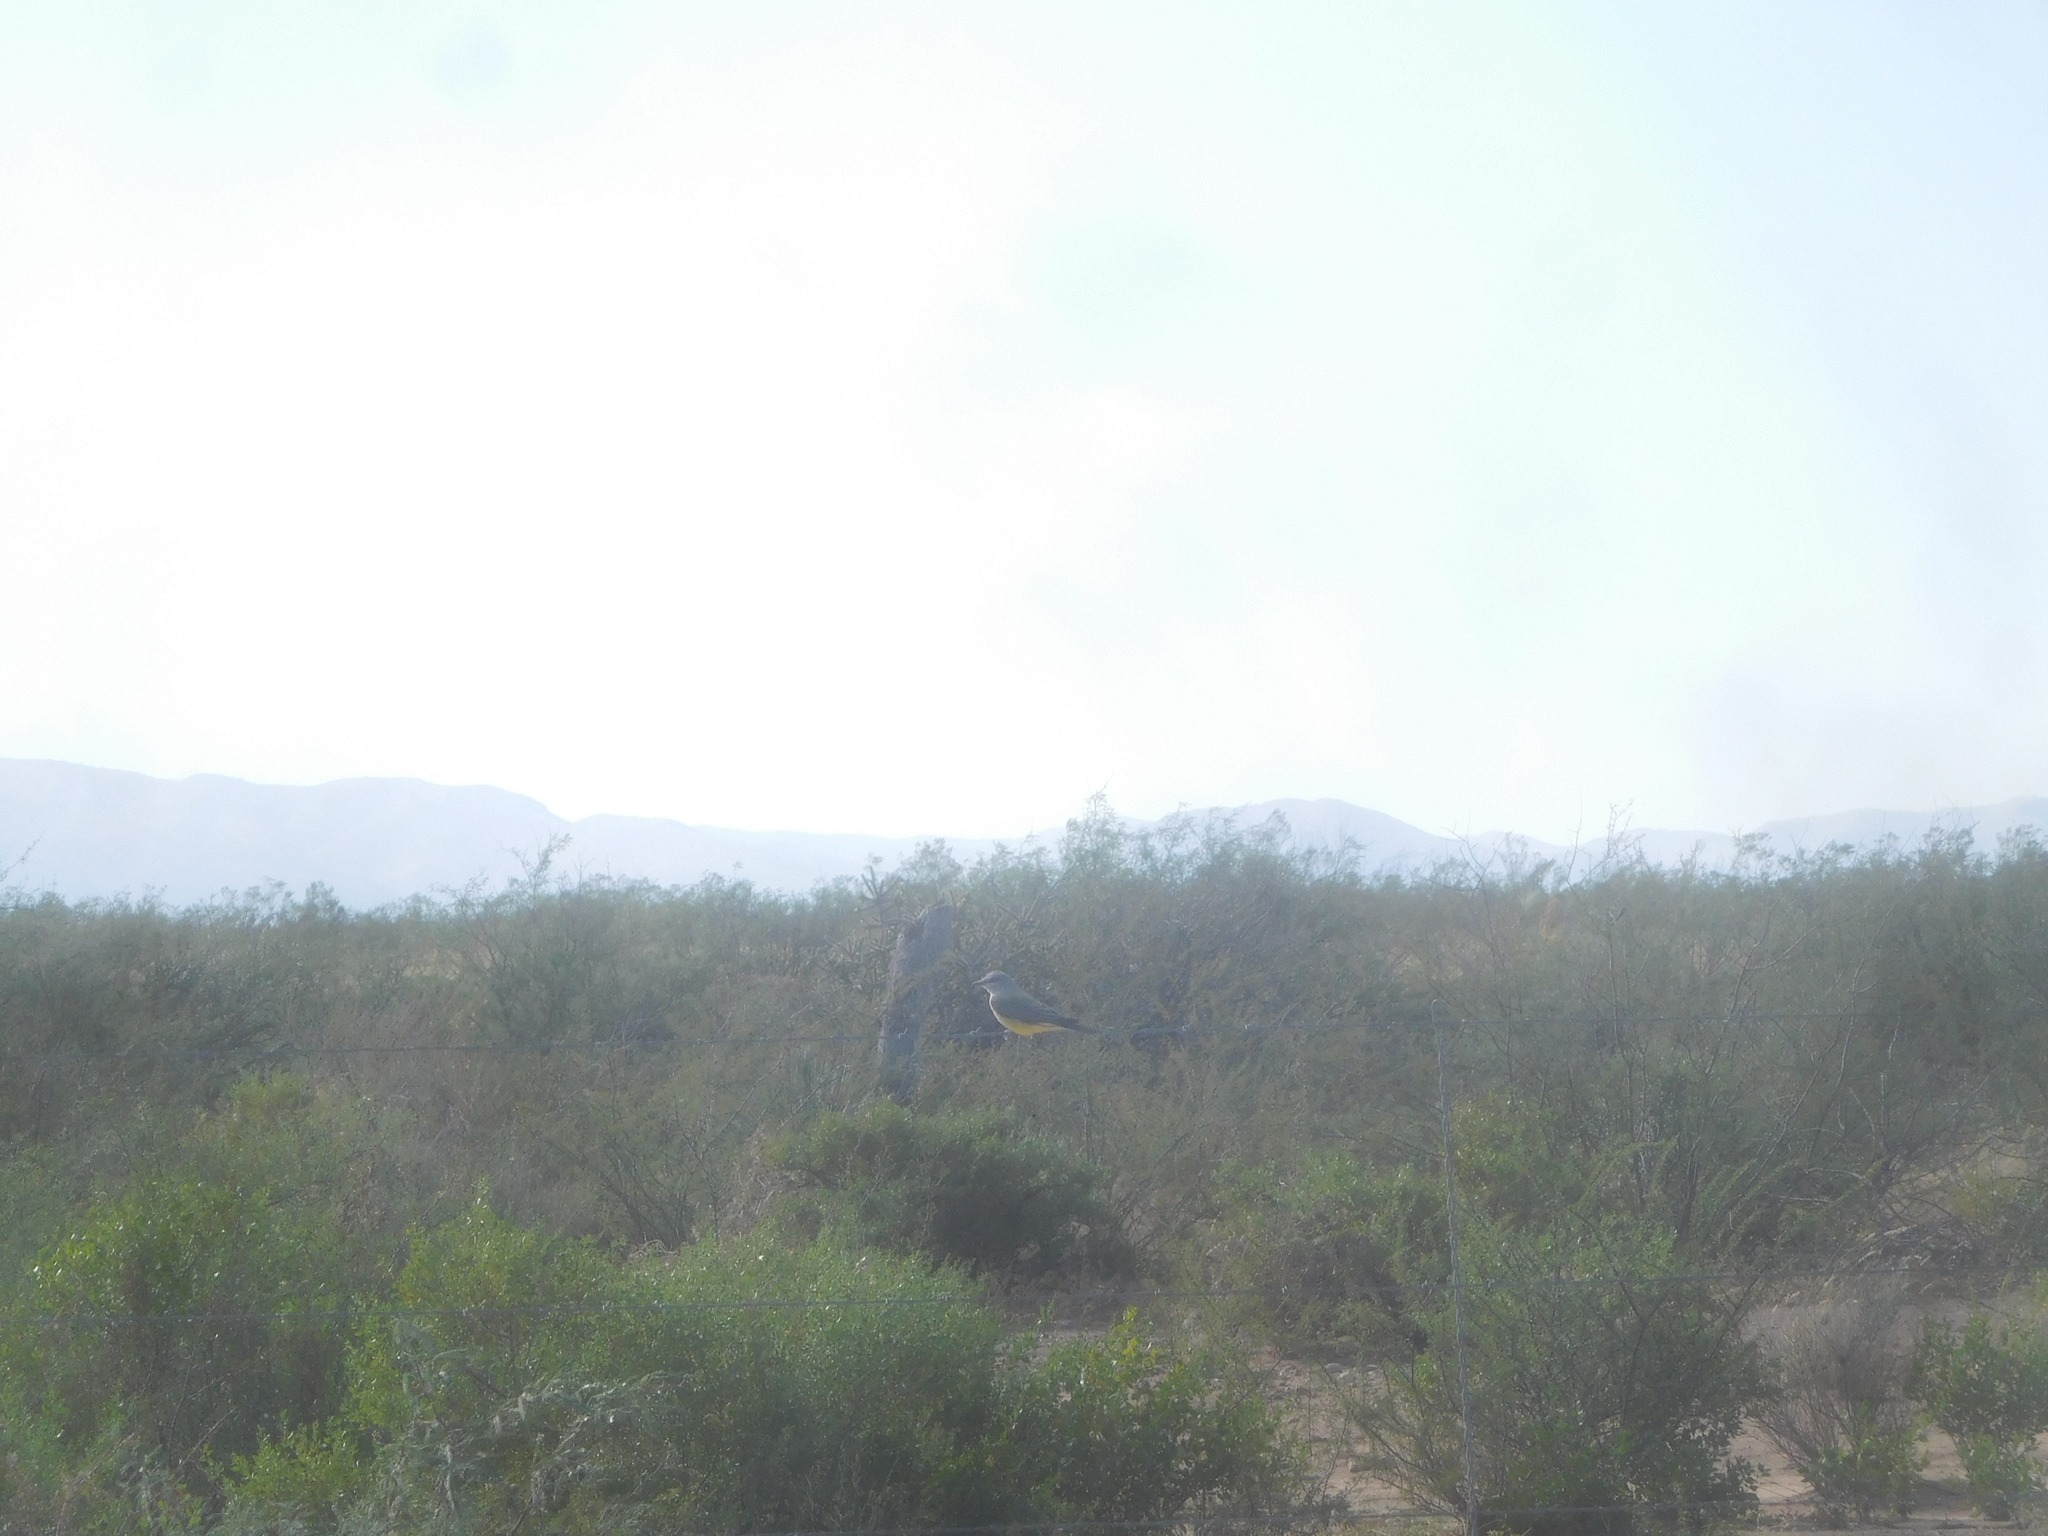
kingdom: Animalia
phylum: Chordata
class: Aves
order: Passeriformes
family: Tyrannidae
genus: Tyrannus
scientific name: Tyrannus verticalis
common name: Western kingbird
